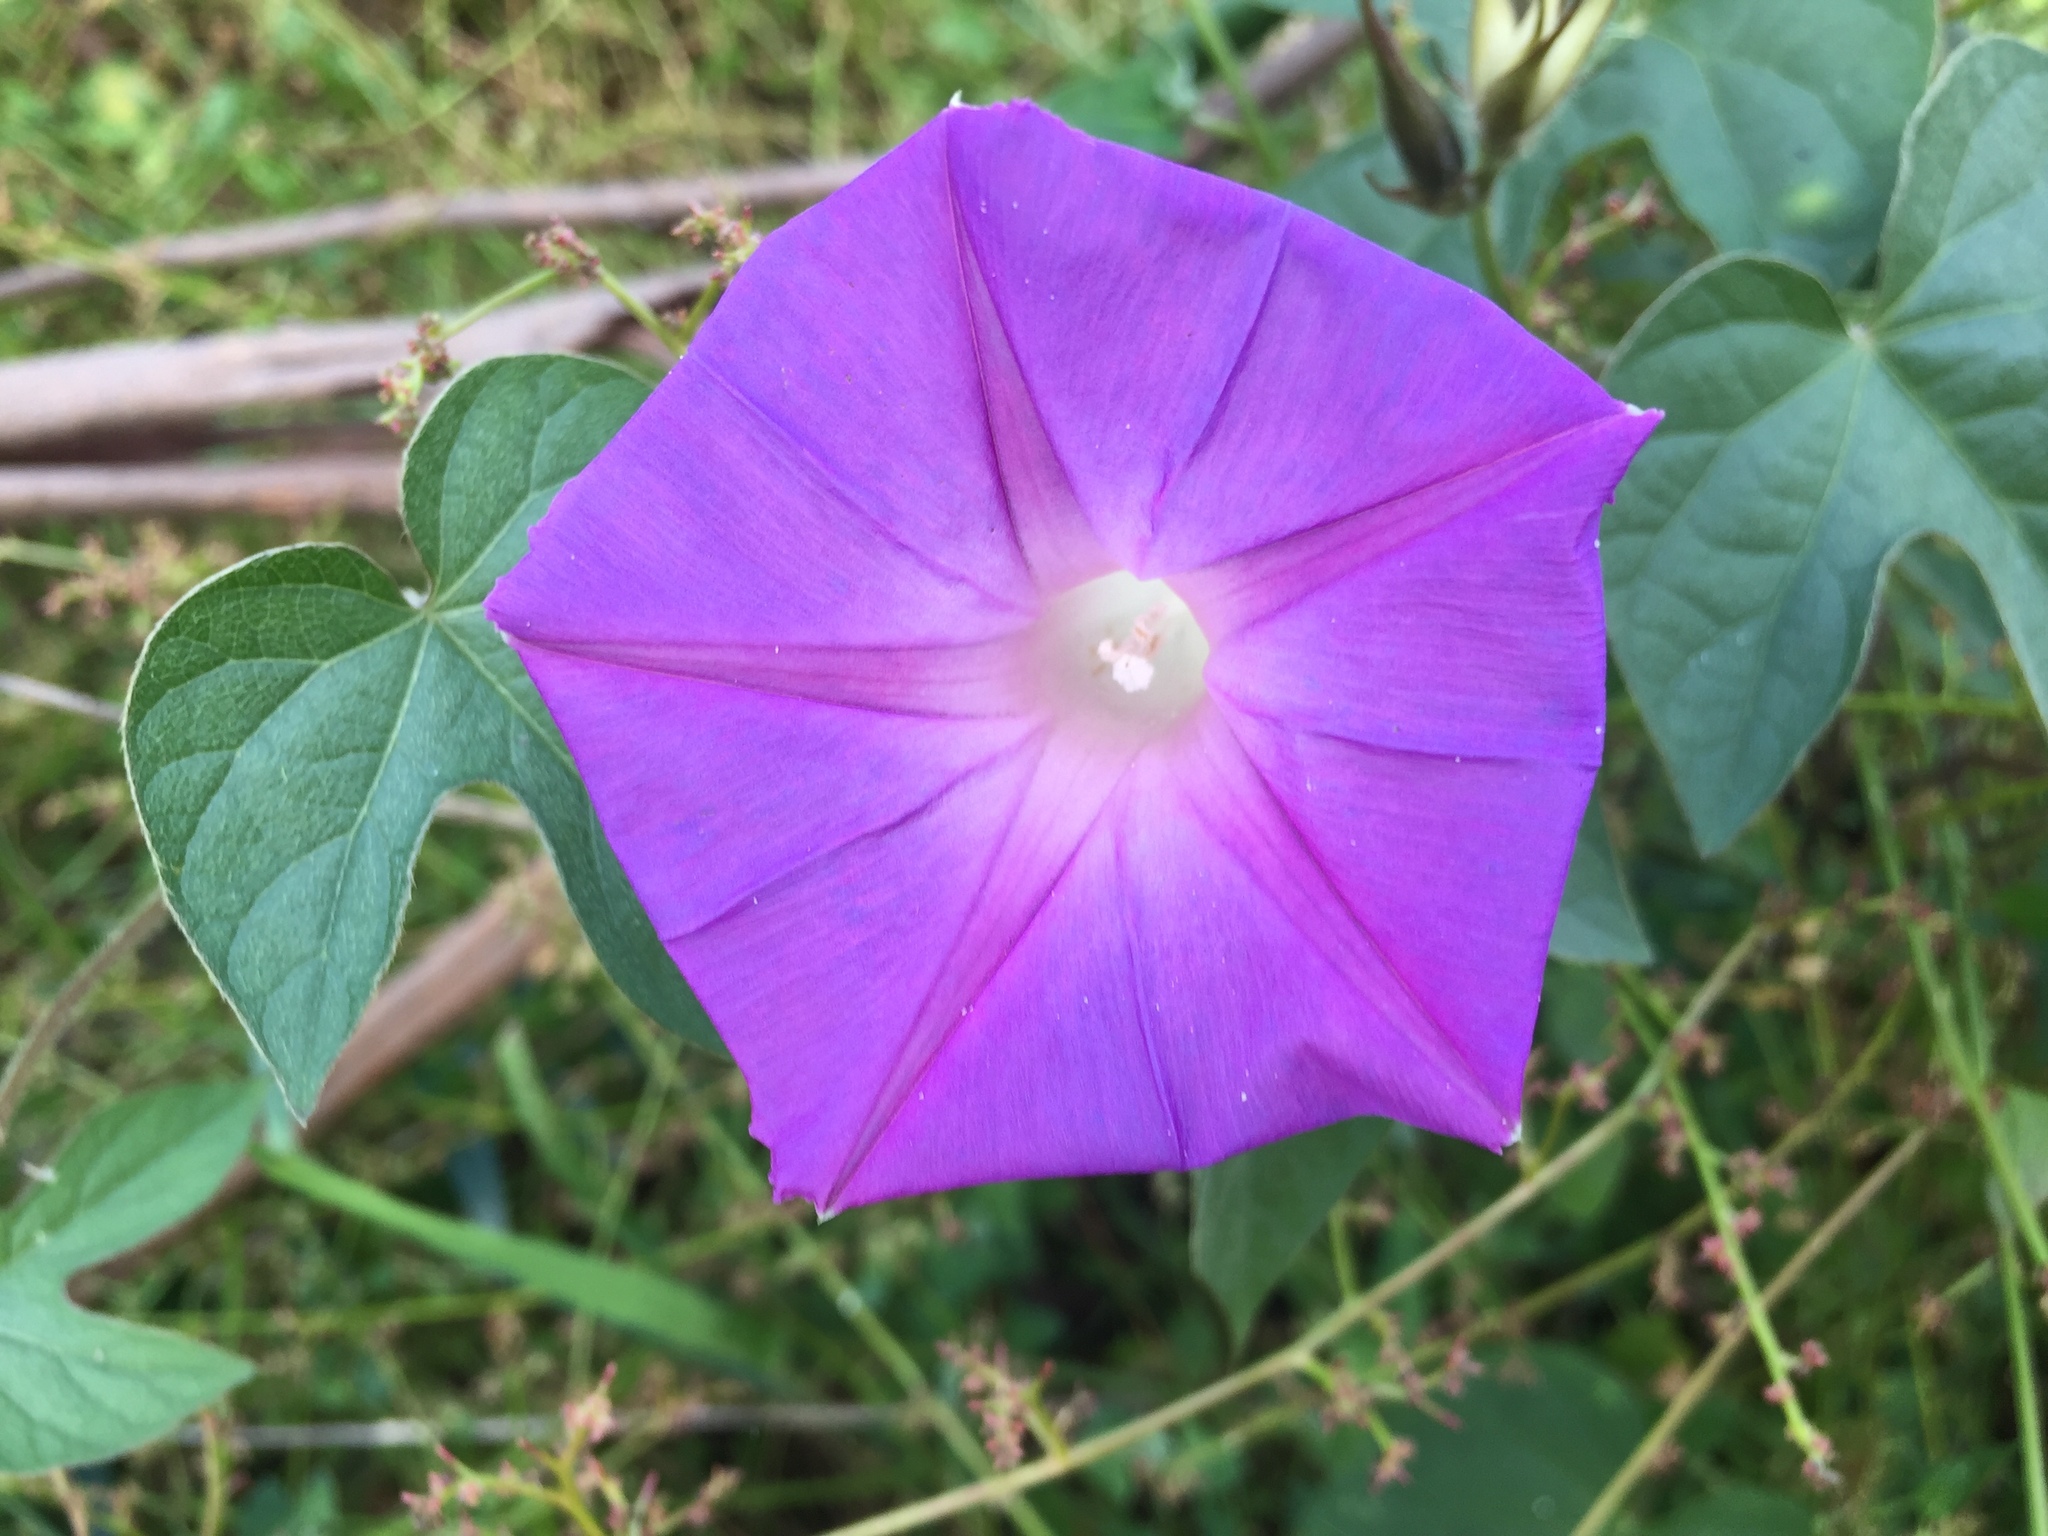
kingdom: Plantae
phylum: Tracheophyta
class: Magnoliopsida
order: Solanales
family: Convolvulaceae
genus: Ipomoea
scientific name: Ipomoea indica
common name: Blue dawnflower
